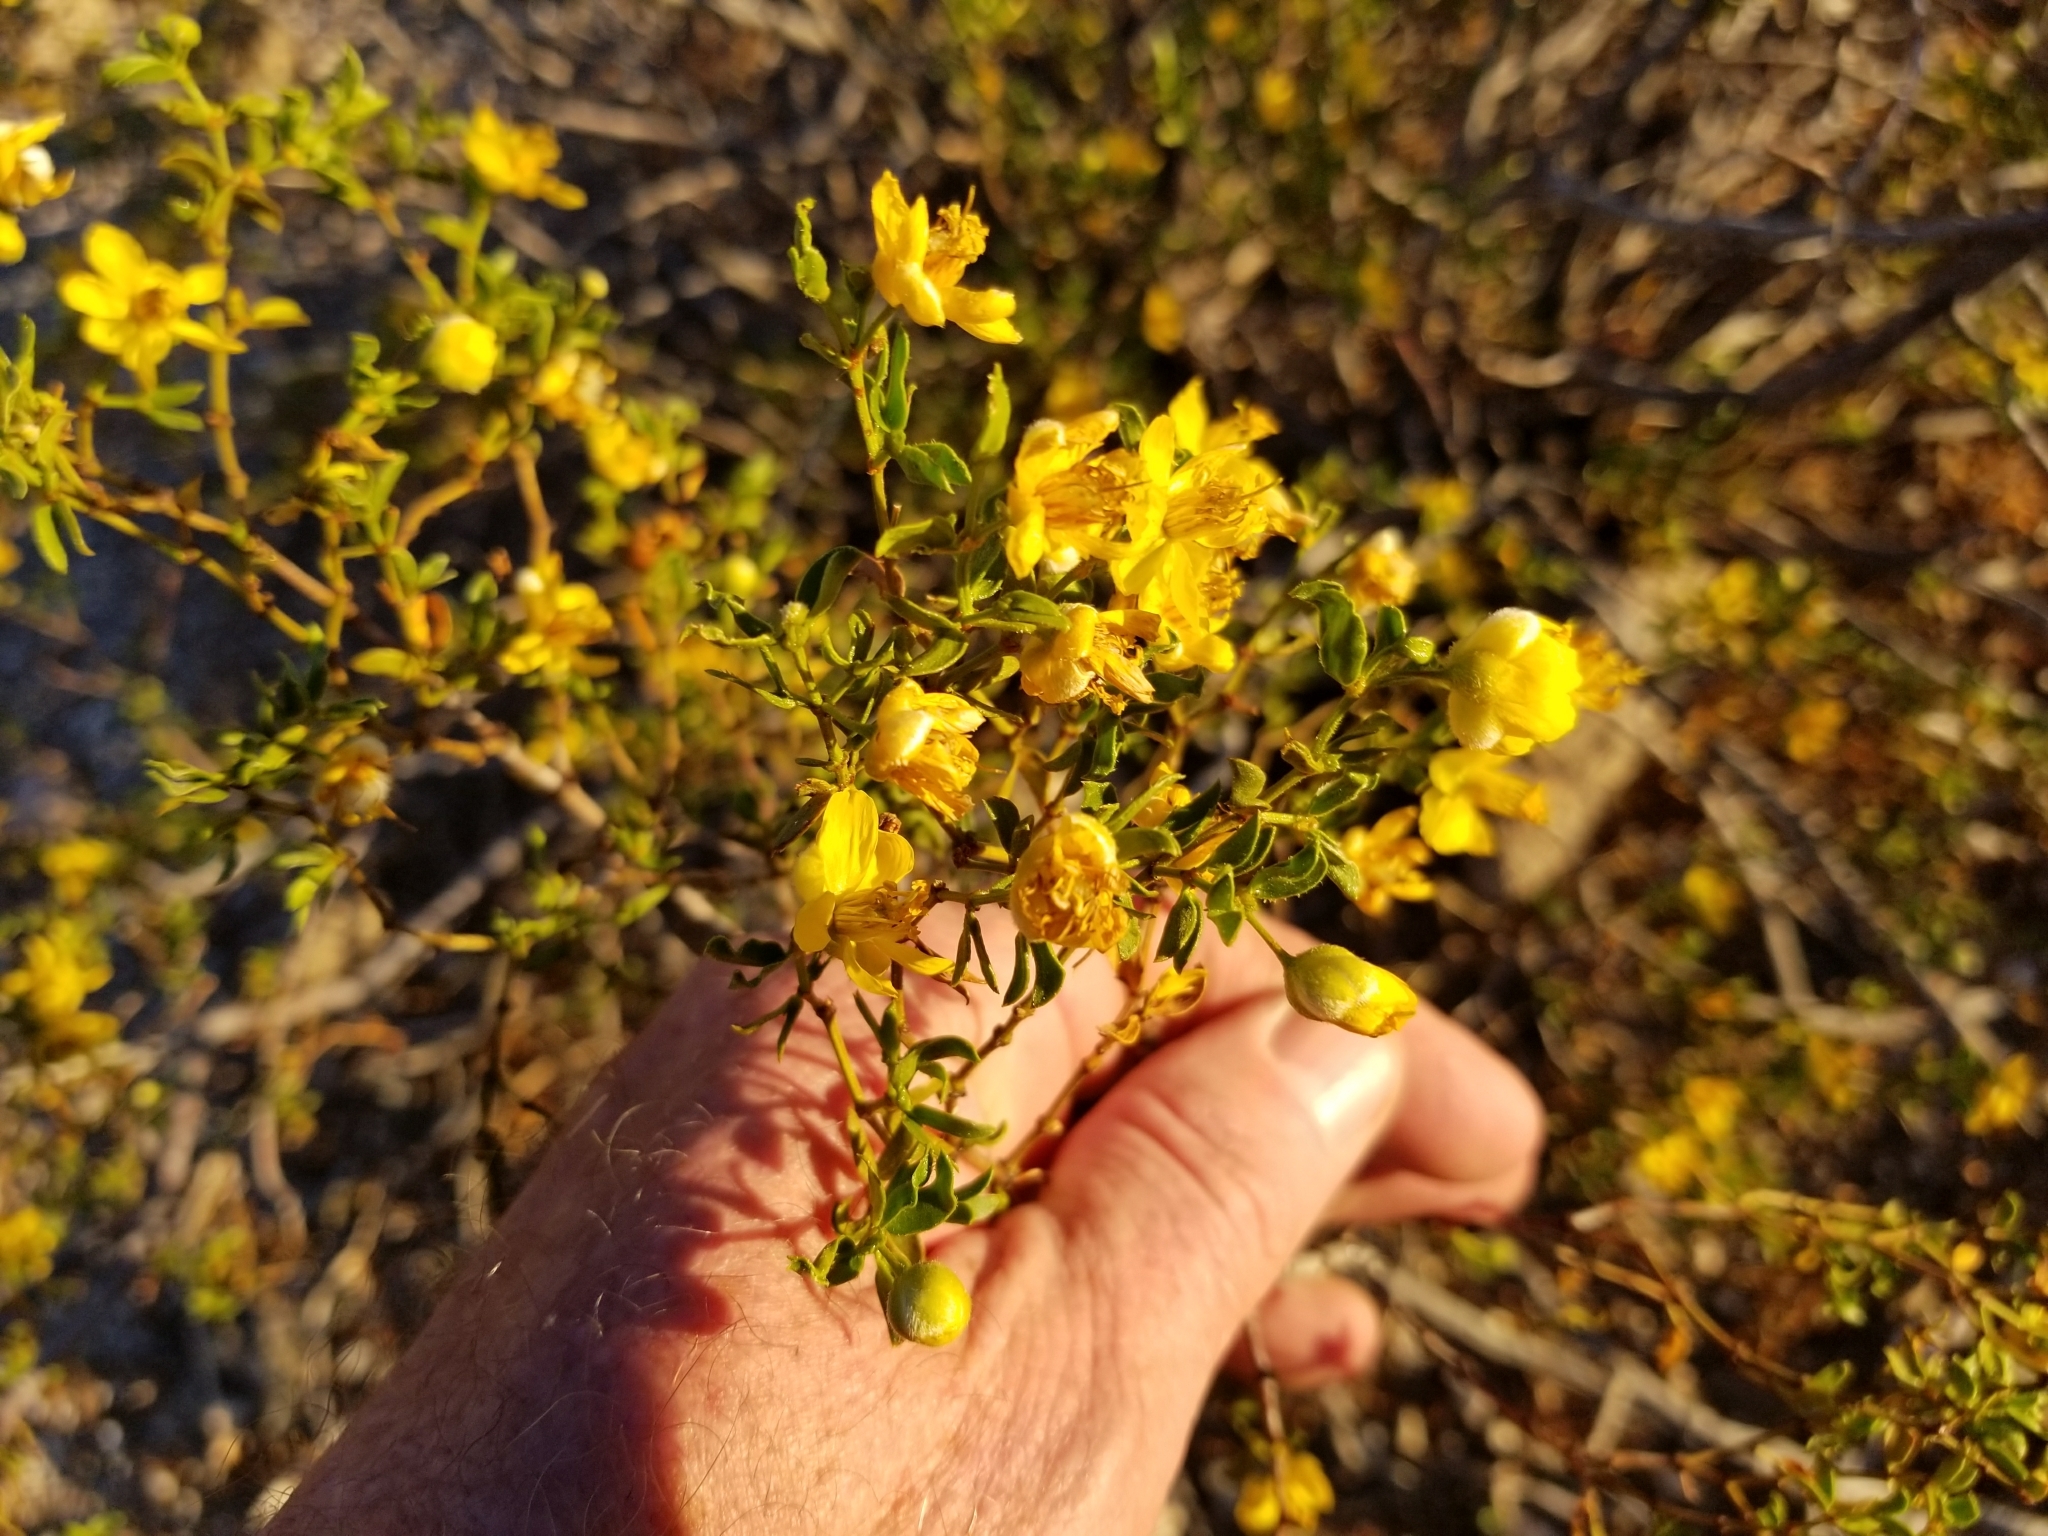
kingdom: Plantae
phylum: Tracheophyta
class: Magnoliopsida
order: Zygophyllales
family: Zygophyllaceae
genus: Larrea
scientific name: Larrea tridentata
